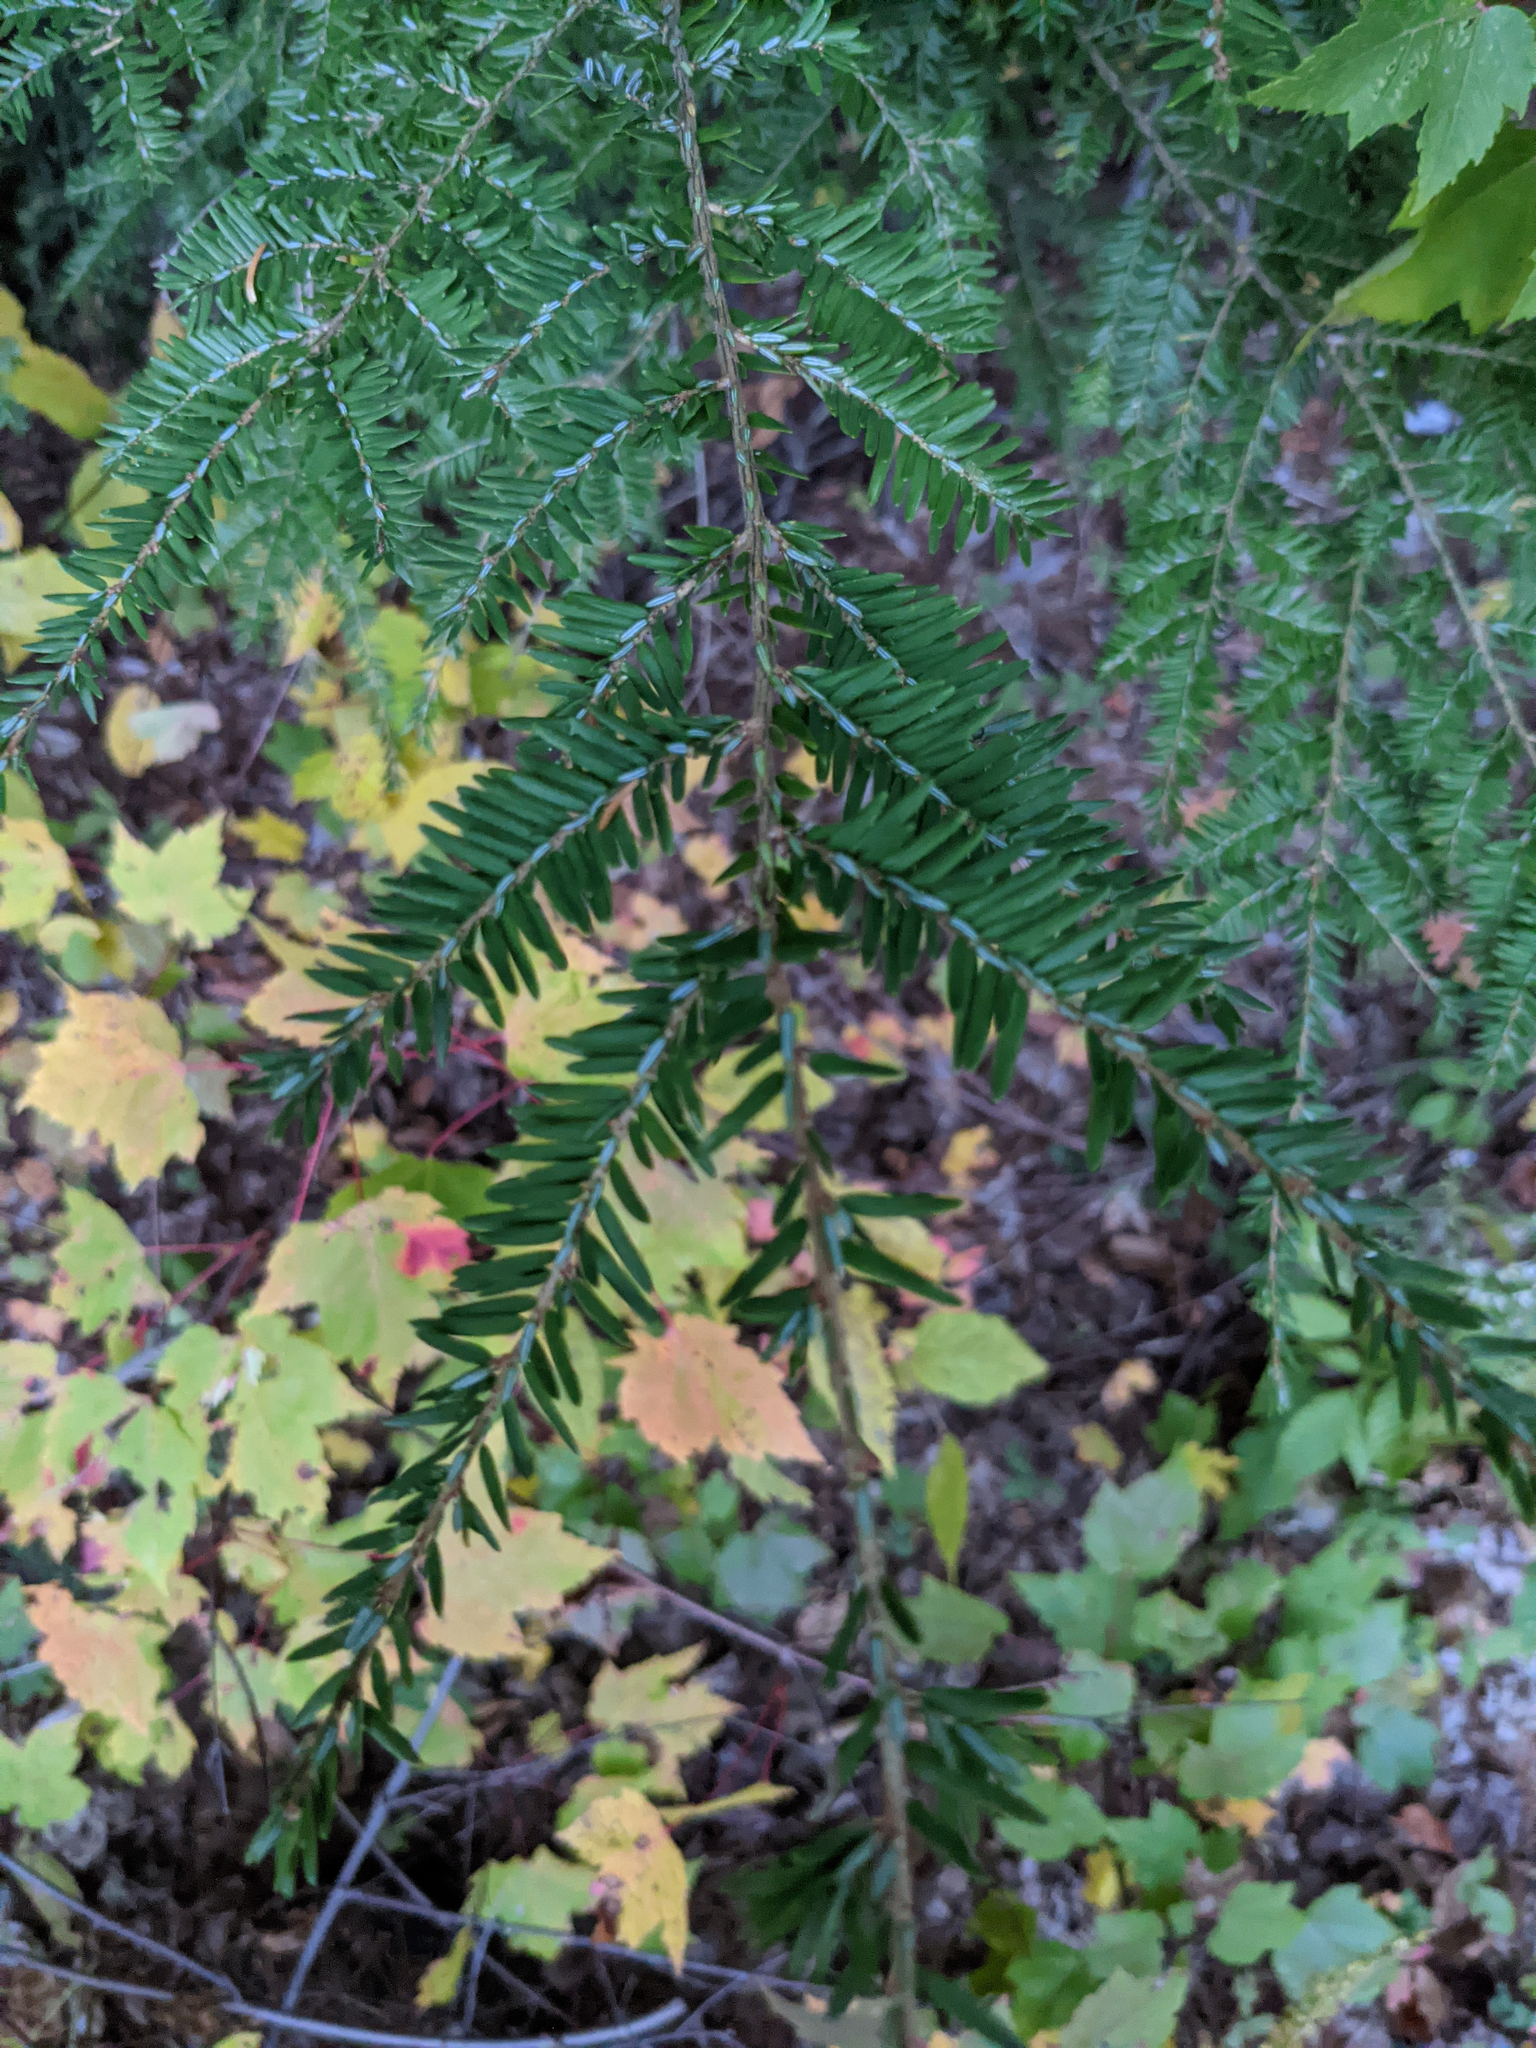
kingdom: Plantae
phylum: Tracheophyta
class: Pinopsida
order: Pinales
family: Pinaceae
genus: Tsuga
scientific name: Tsuga canadensis
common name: Eastern hemlock
